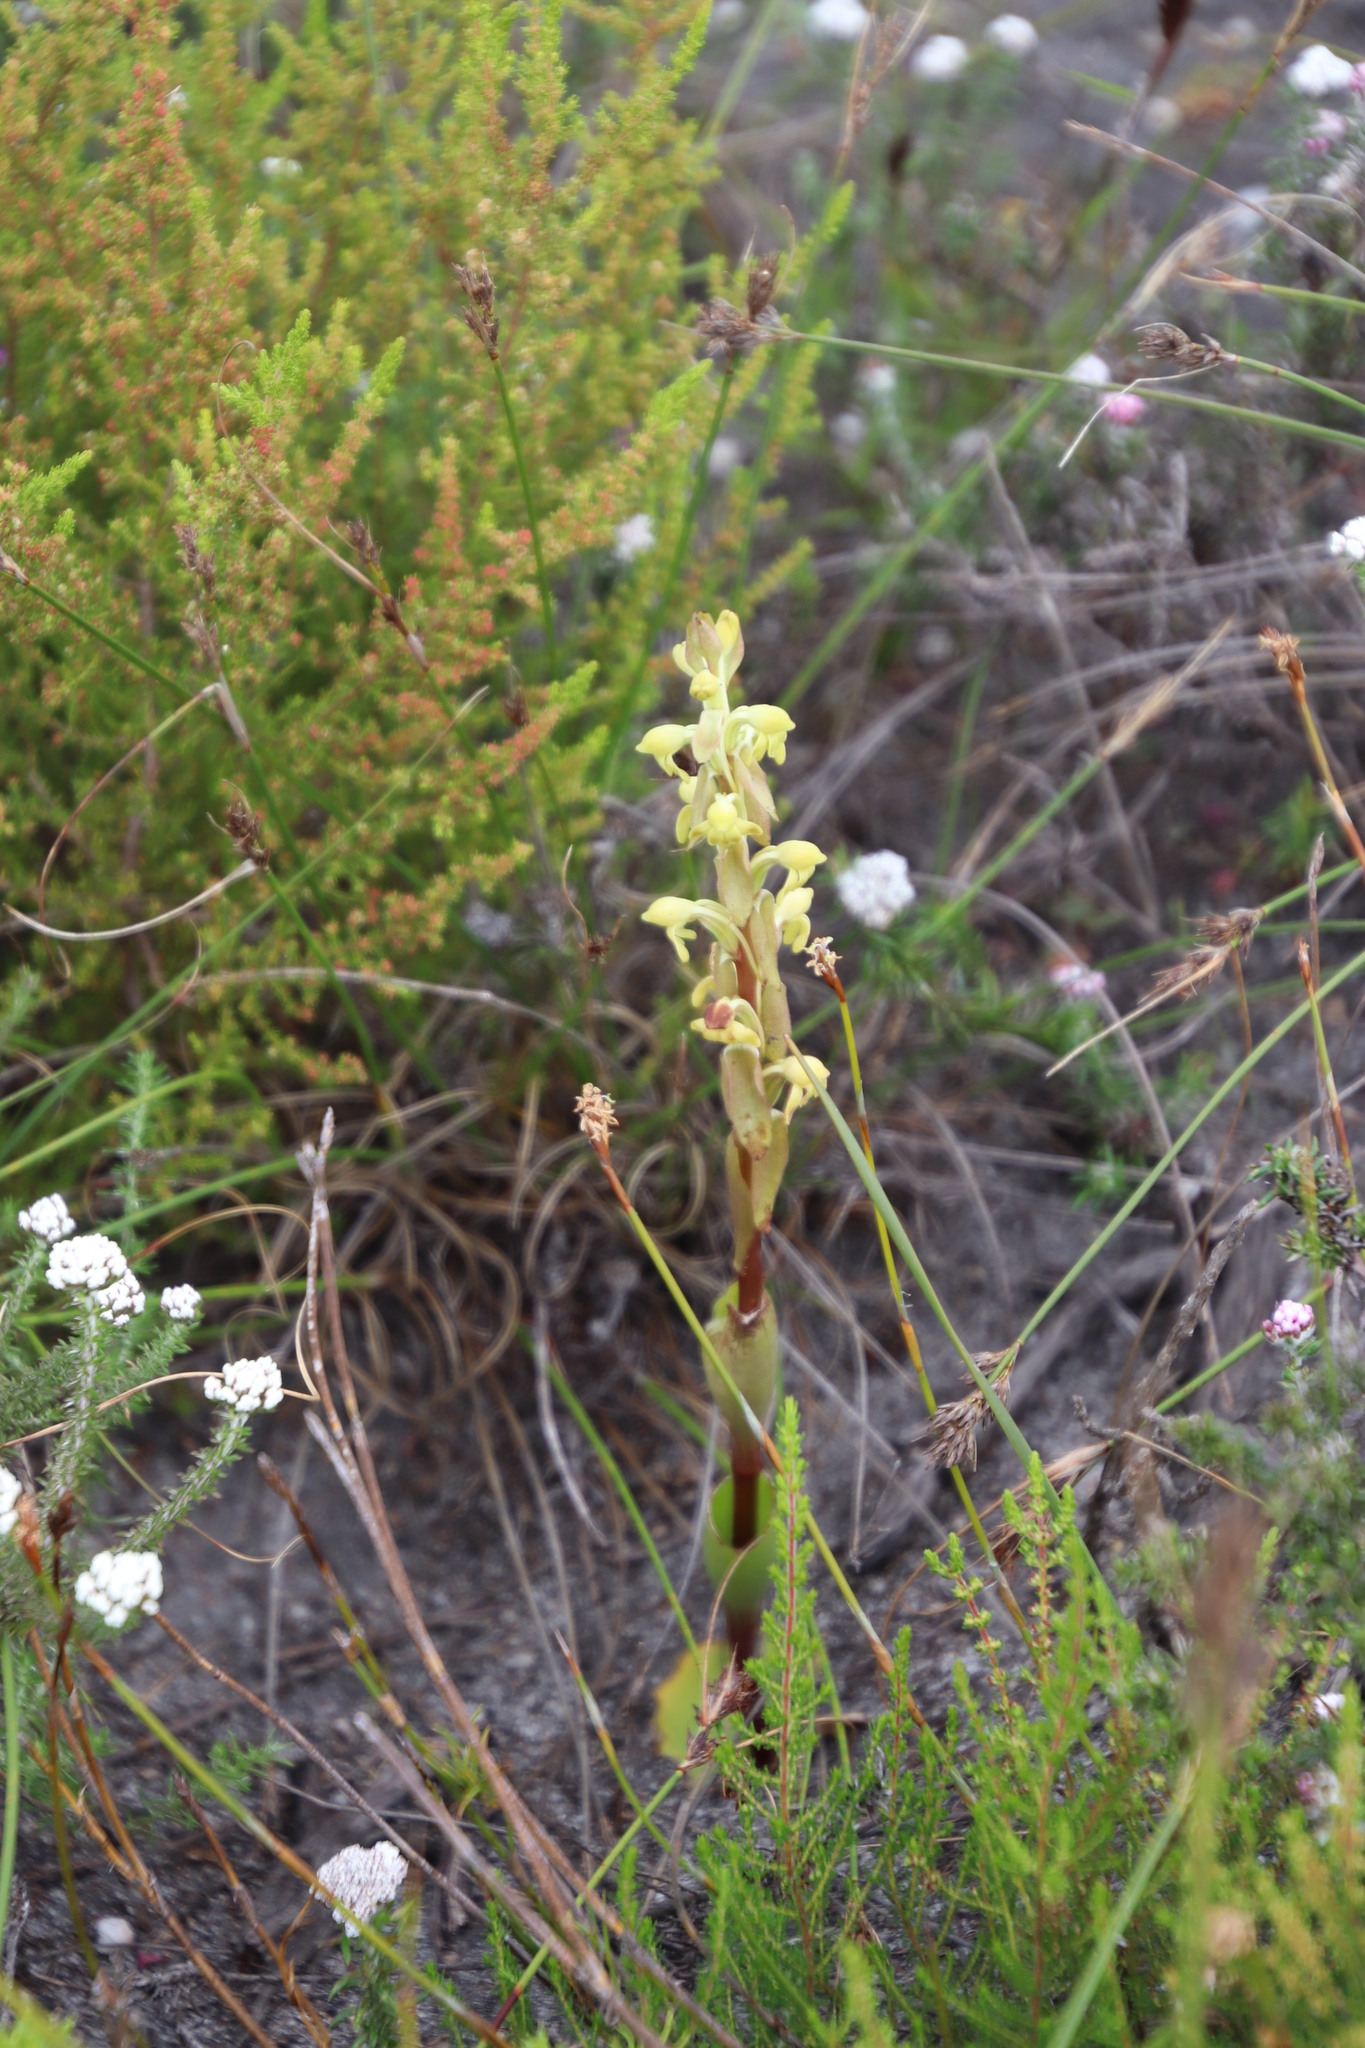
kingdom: Plantae
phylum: Tracheophyta
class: Liliopsida
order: Asparagales
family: Orchidaceae
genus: Satyrium
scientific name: Satyrium bicorne
